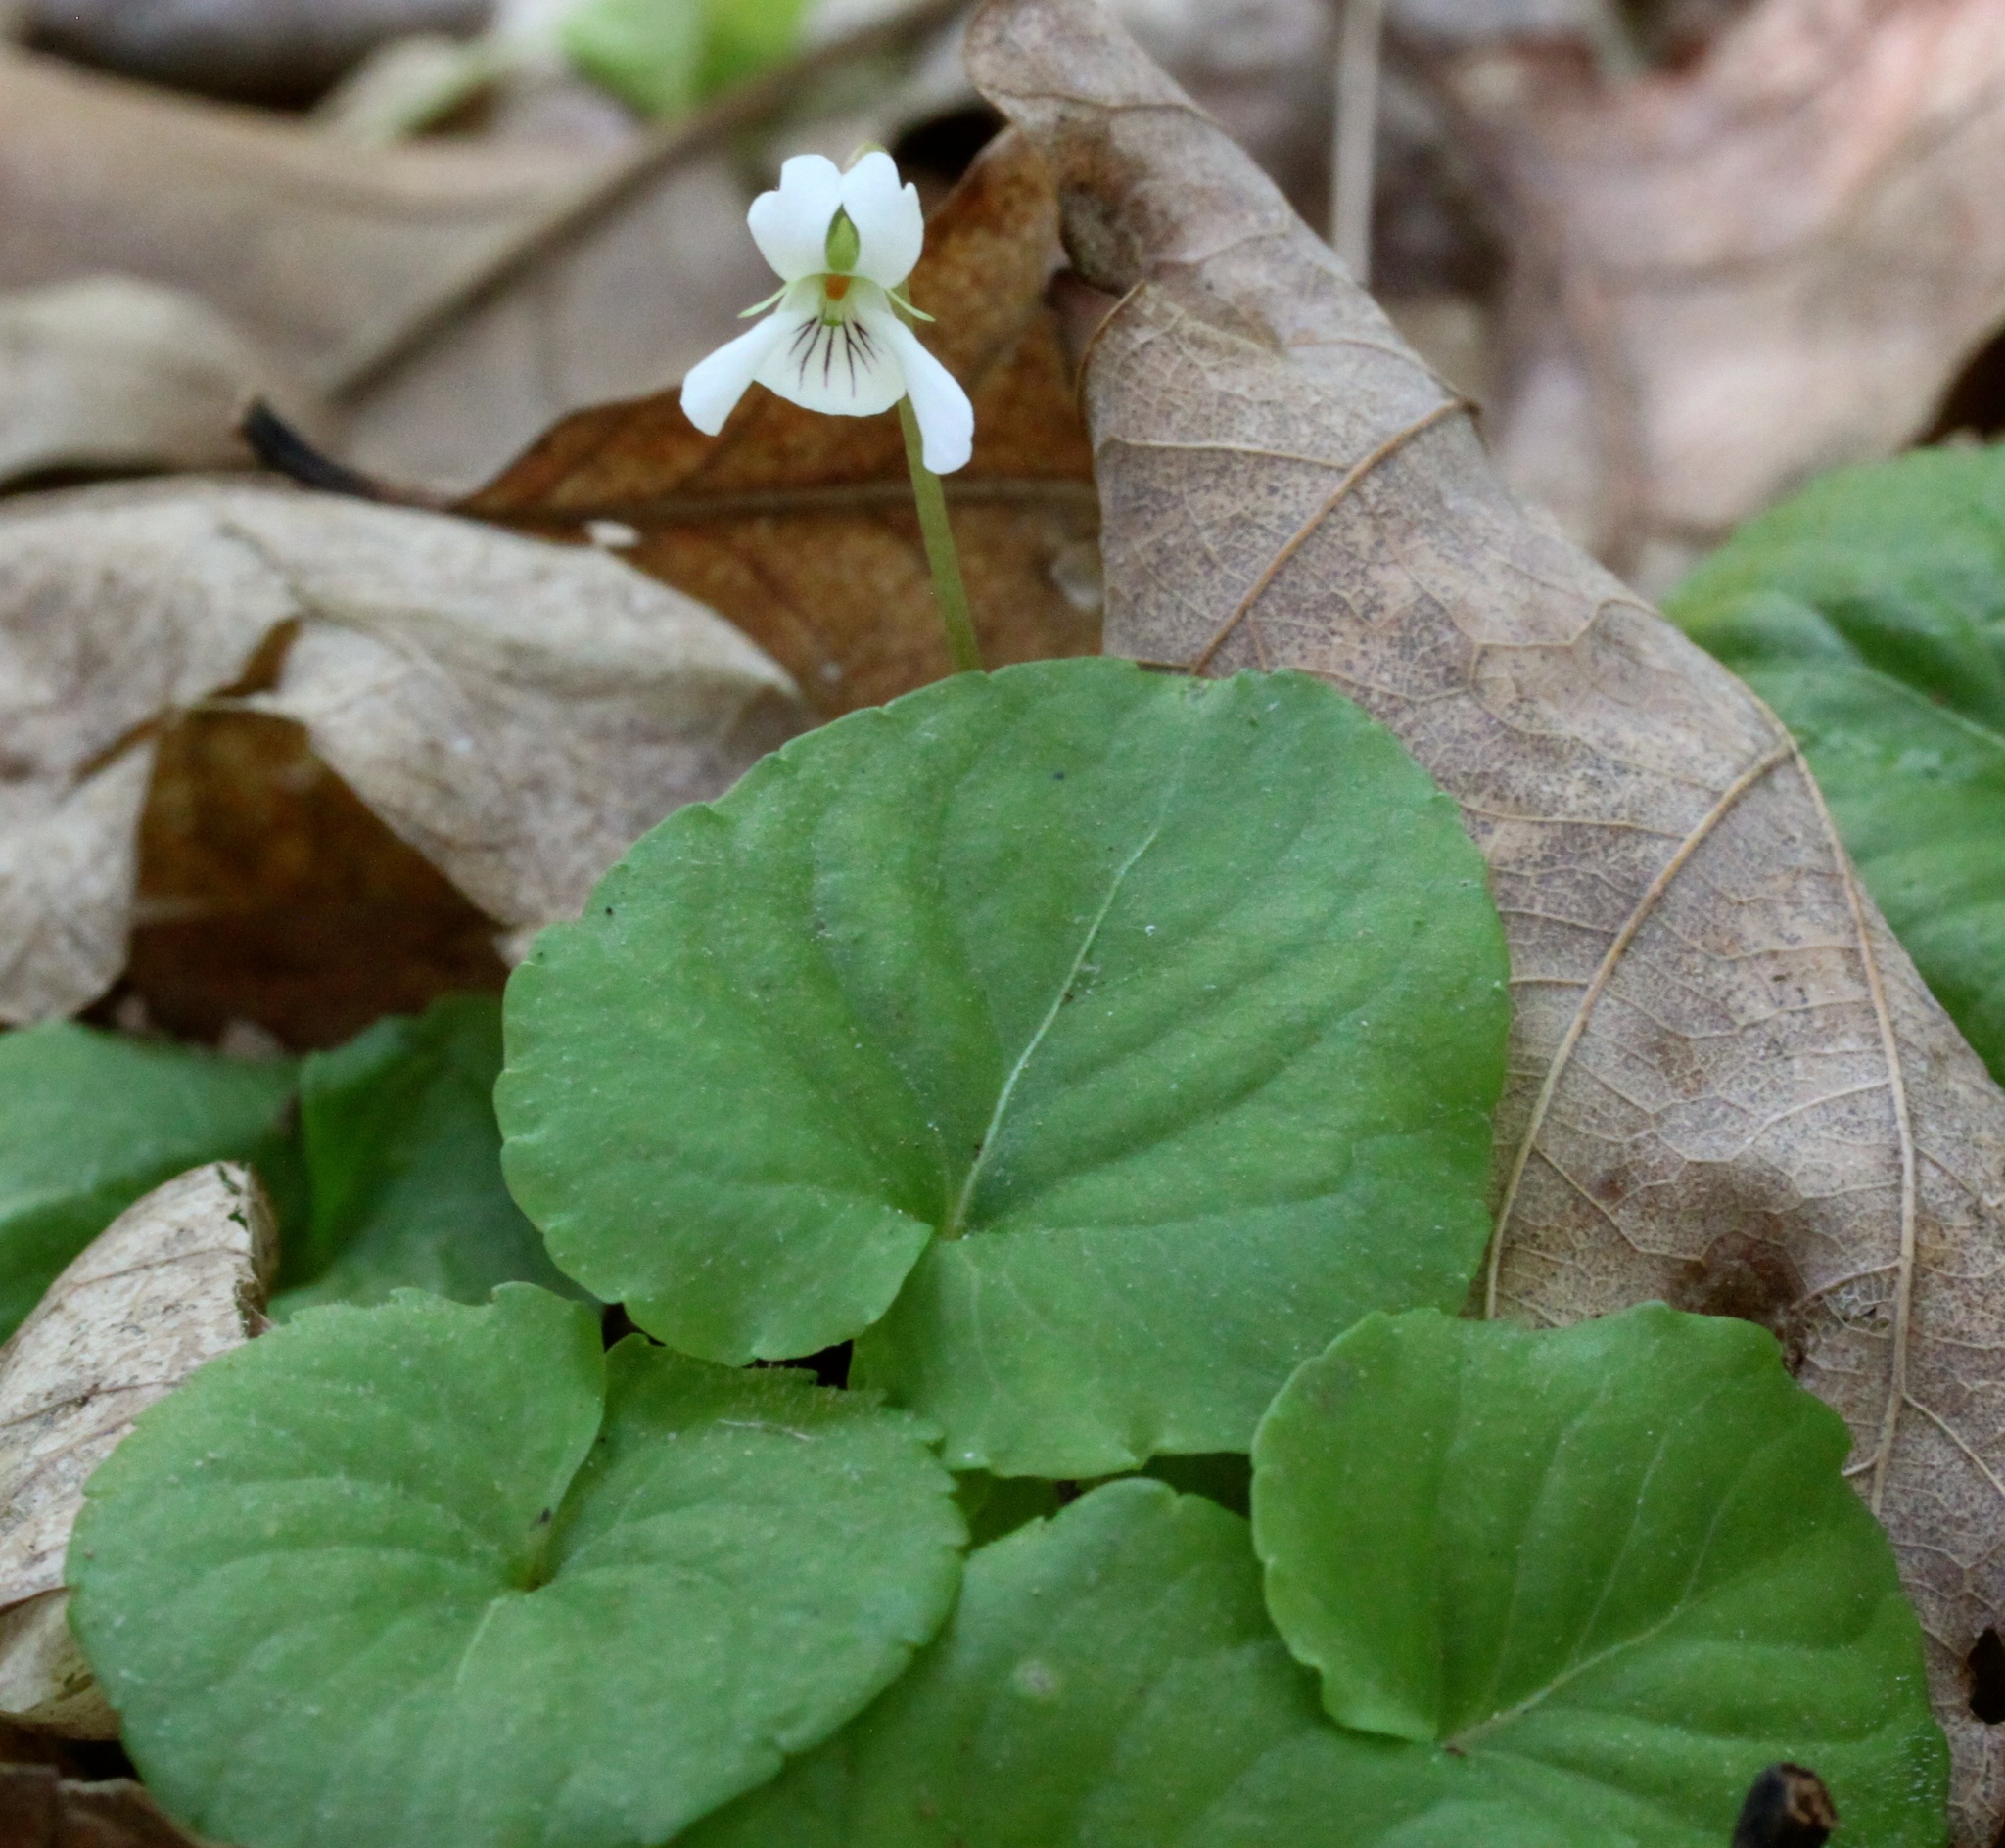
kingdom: Plantae
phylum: Tracheophyta
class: Magnoliopsida
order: Malpighiales
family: Violaceae
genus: Viola
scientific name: Viola blanda
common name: Sweet white violet
